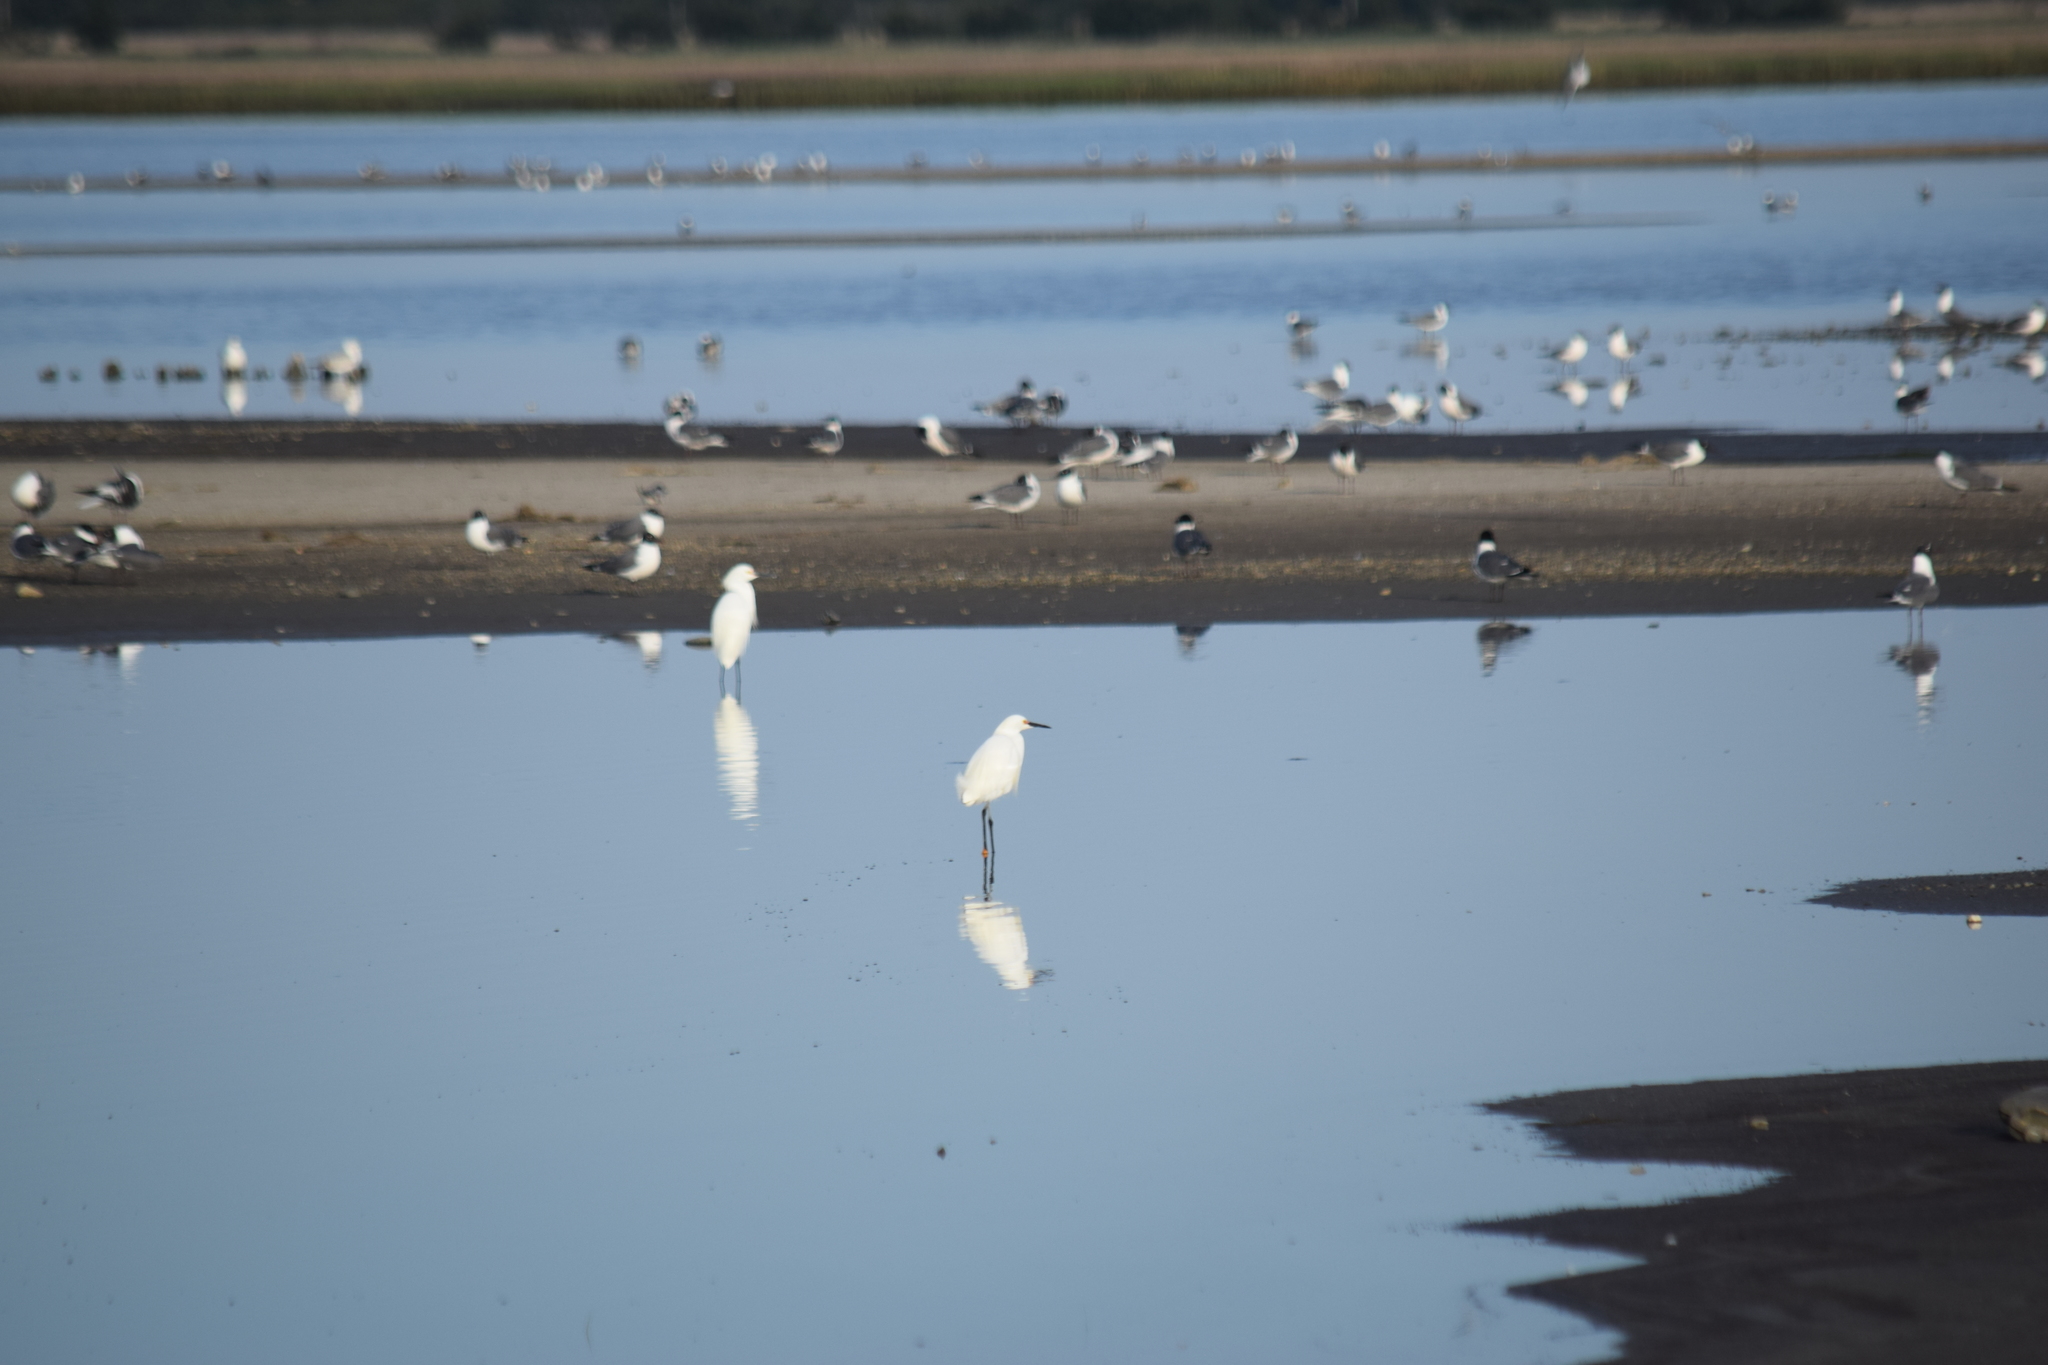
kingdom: Animalia
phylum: Chordata
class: Aves
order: Pelecaniformes
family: Ardeidae
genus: Egretta
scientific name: Egretta thula
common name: Snowy egret
